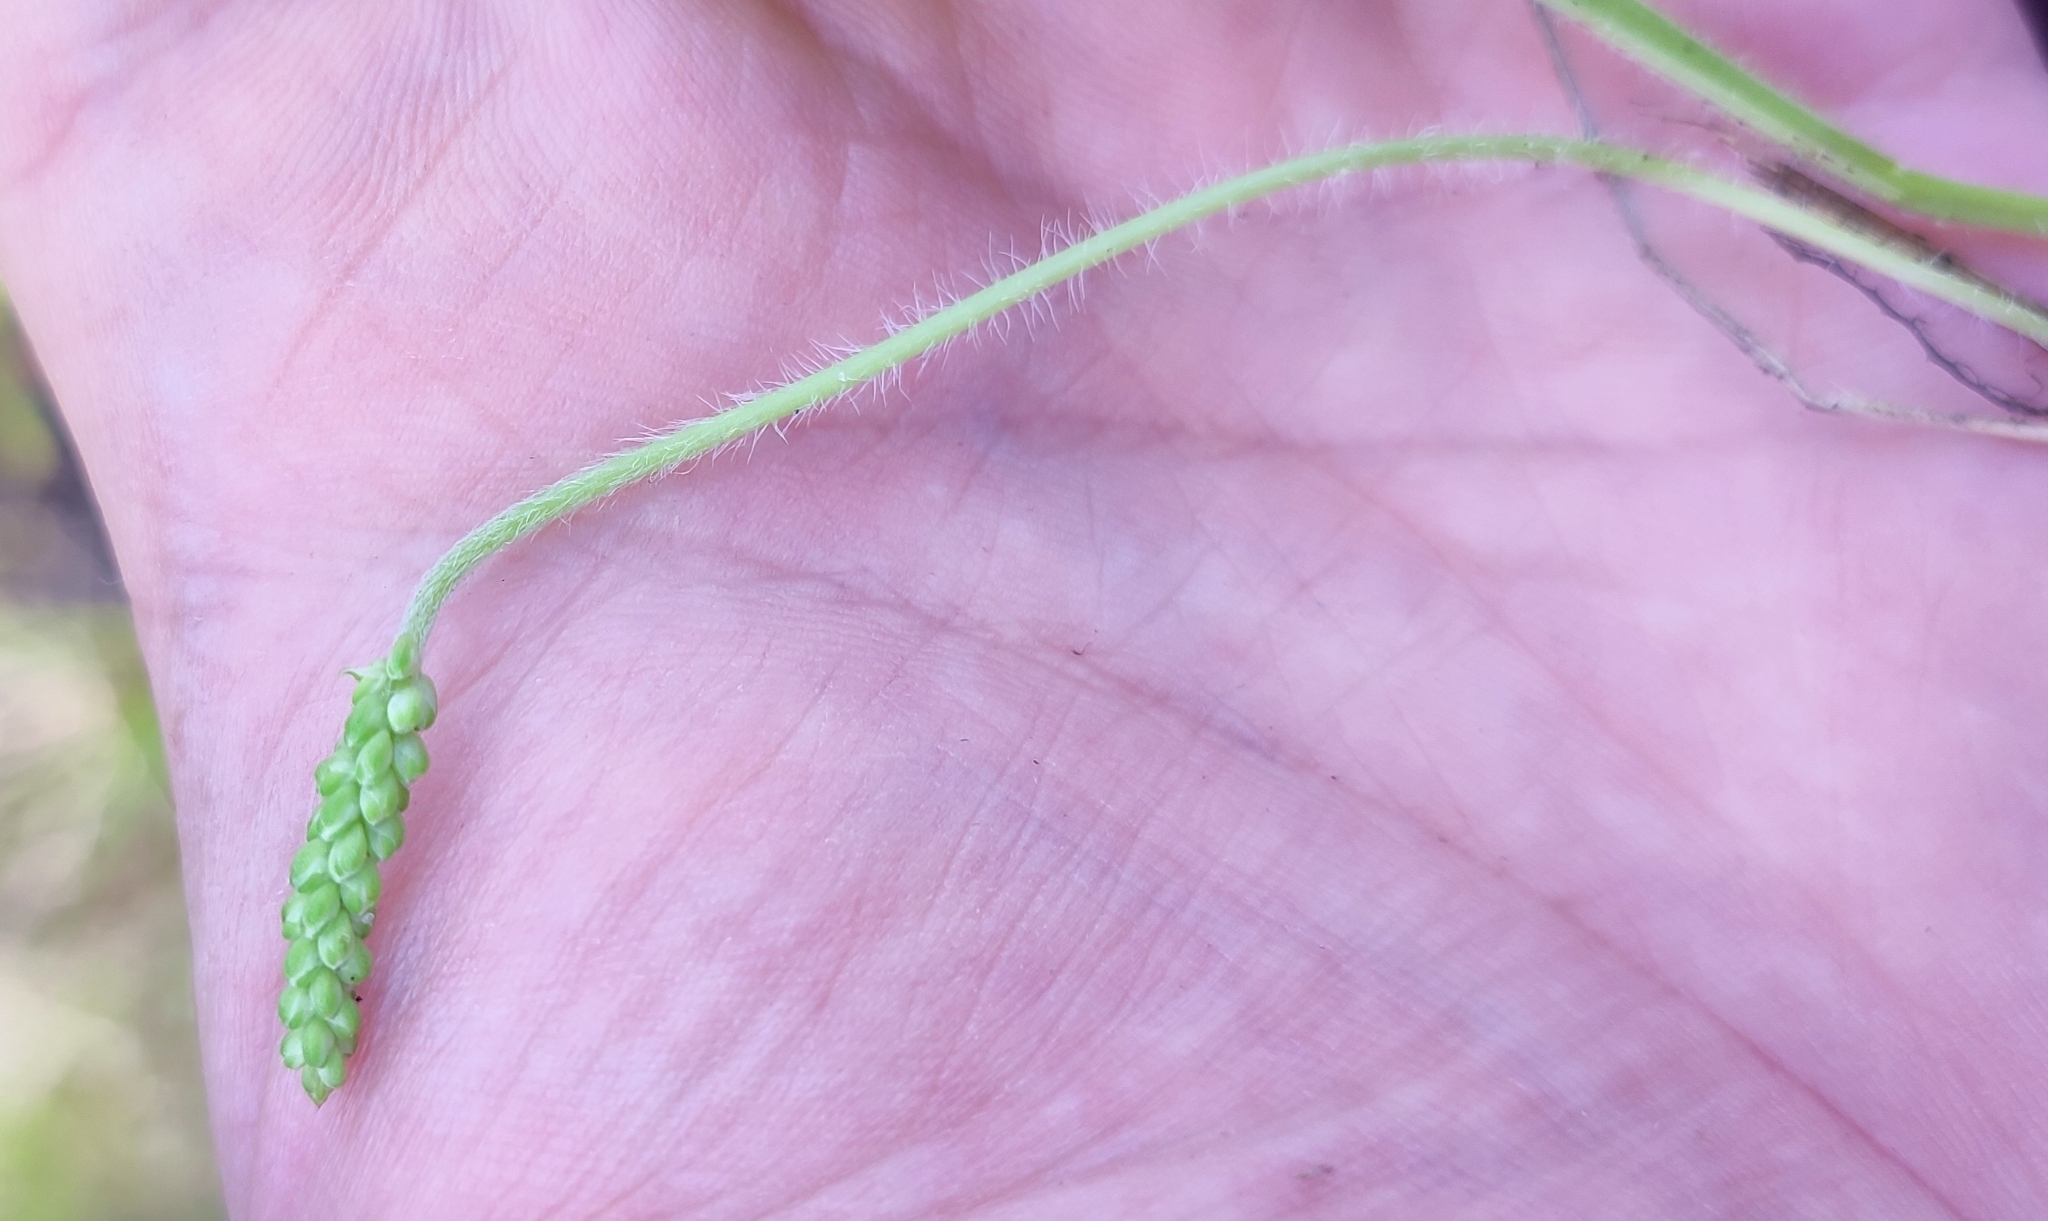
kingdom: Plantae
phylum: Tracheophyta
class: Magnoliopsida
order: Lamiales
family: Plantaginaceae
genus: Plantago
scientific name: Plantago uliginosa
